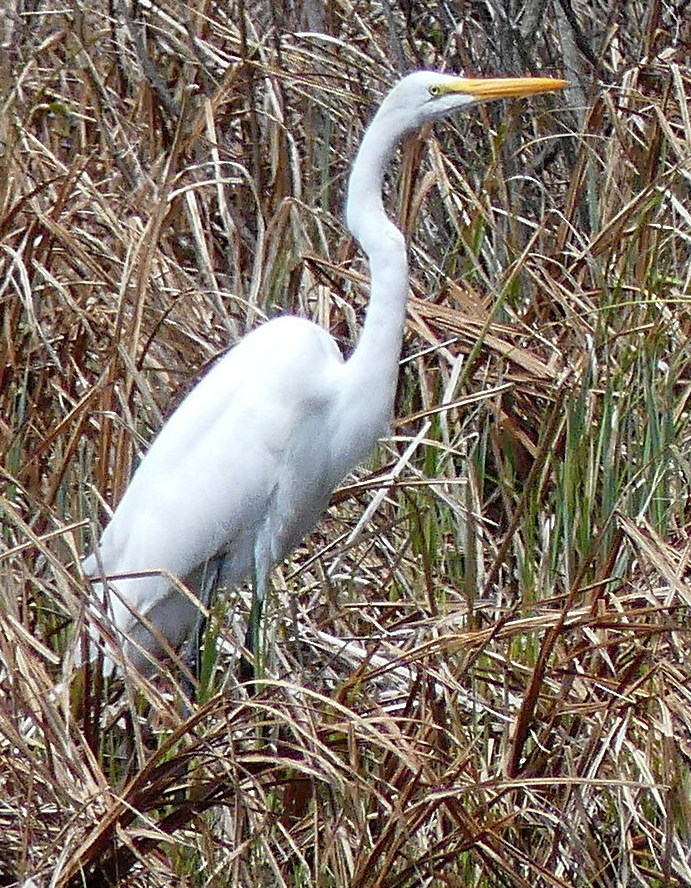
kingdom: Animalia
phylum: Chordata
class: Aves
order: Pelecaniformes
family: Ardeidae
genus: Ardea
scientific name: Ardea alba
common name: Great egret
